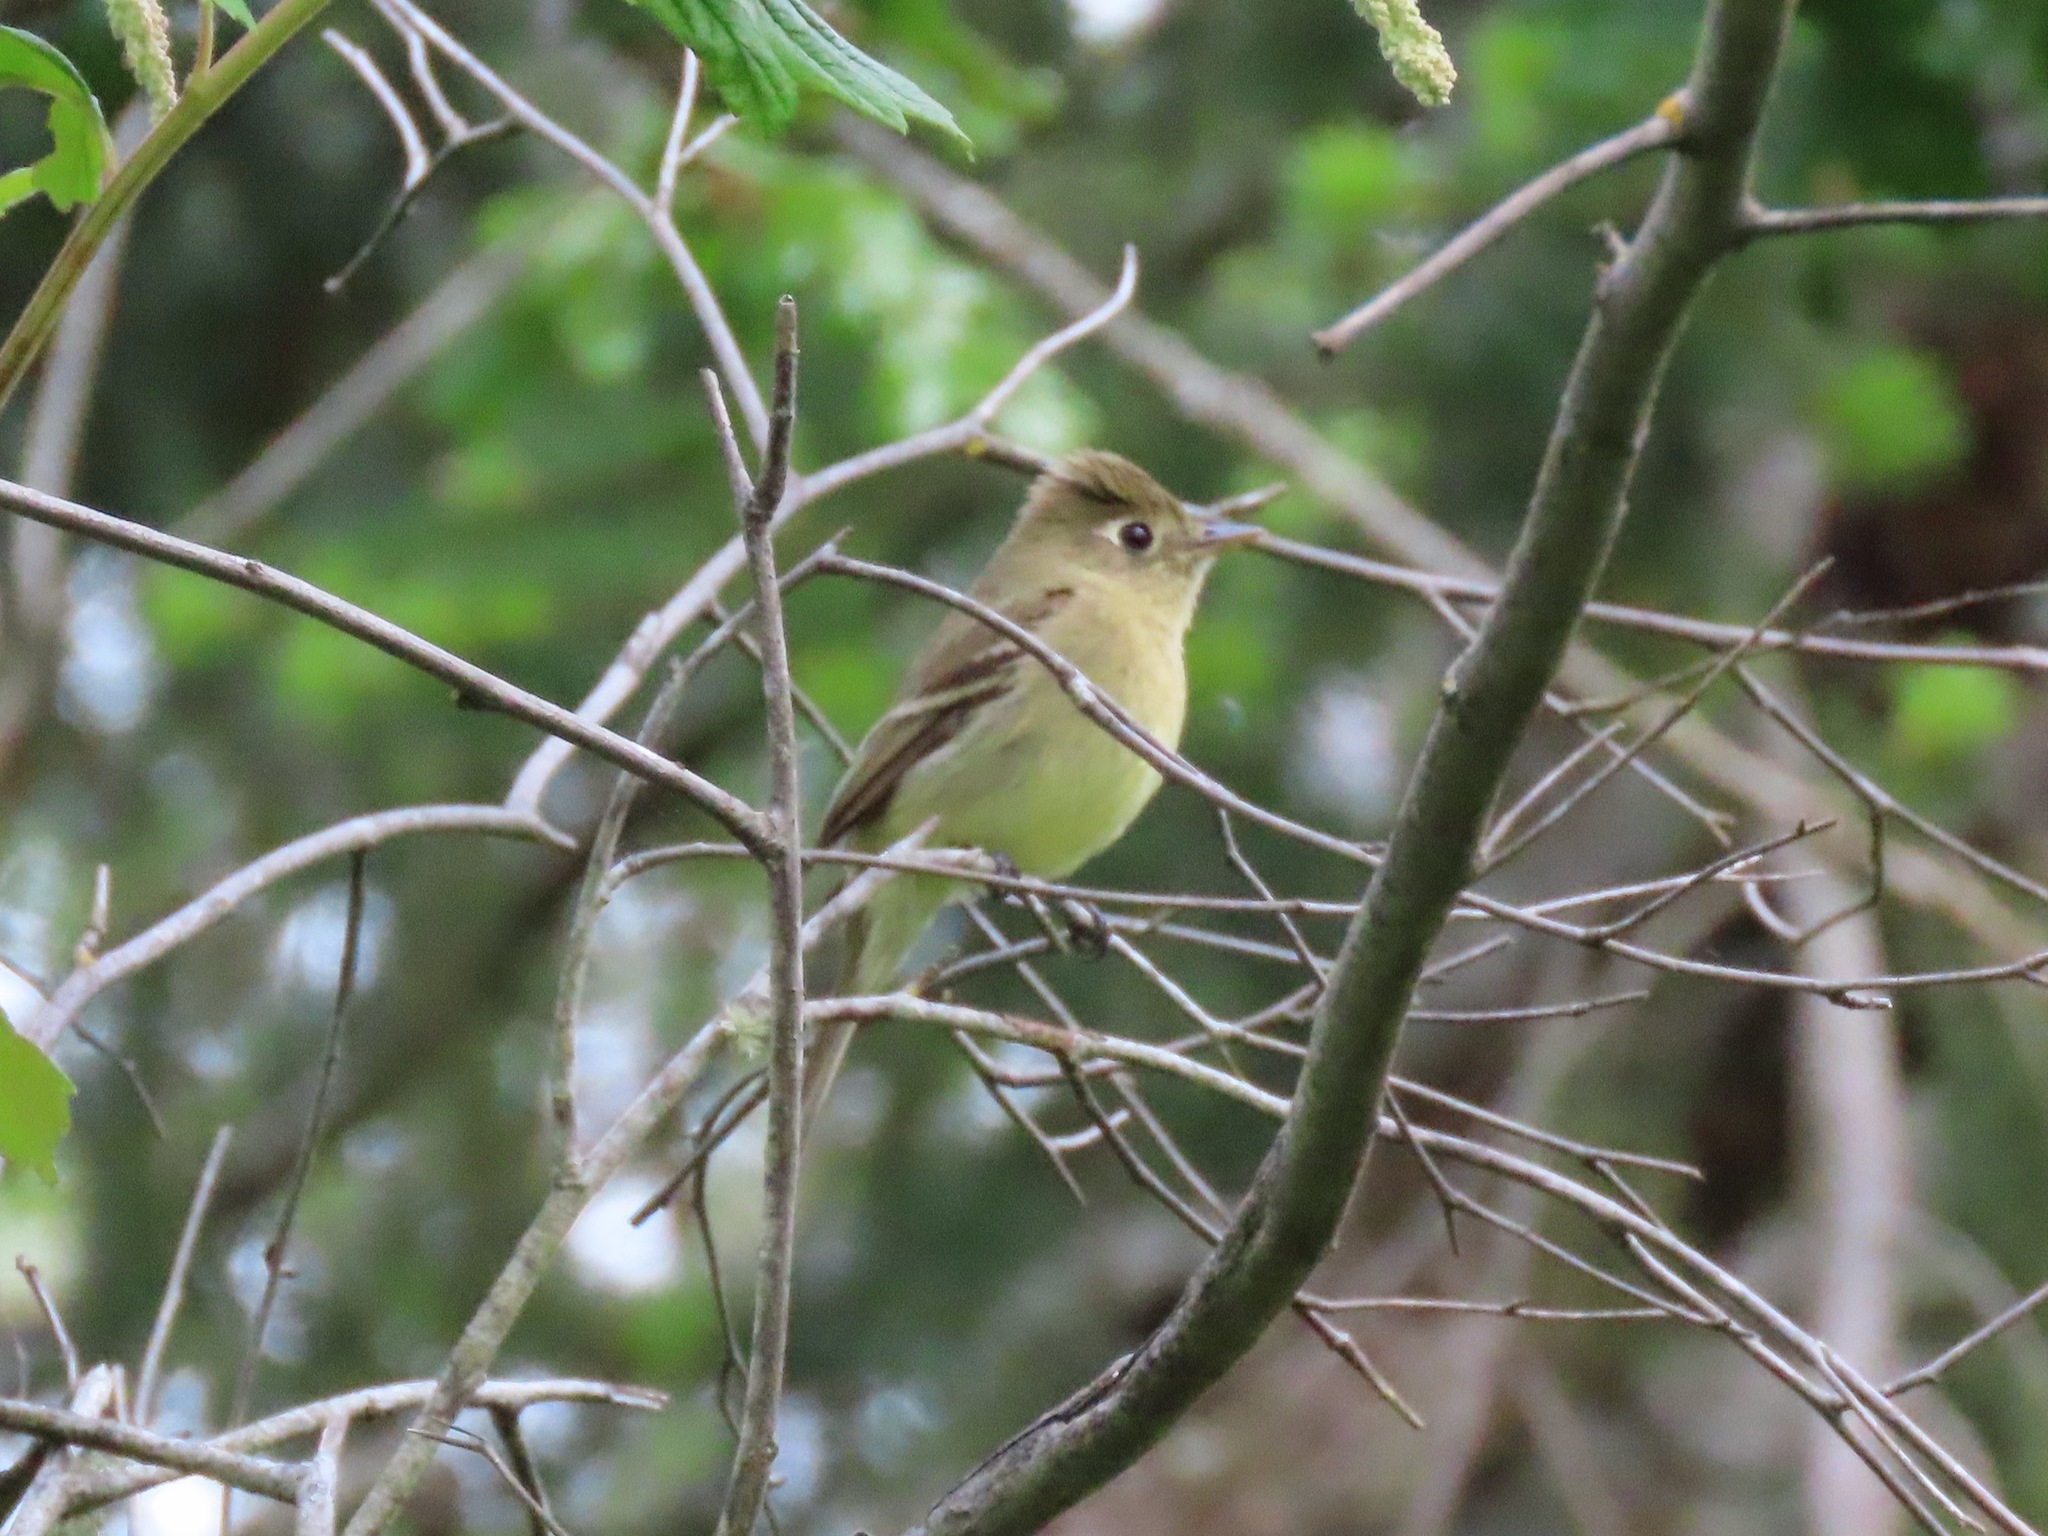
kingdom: Animalia
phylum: Chordata
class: Aves
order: Passeriformes
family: Tyrannidae
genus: Empidonax
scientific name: Empidonax difficilis
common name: Pacific-slope flycatcher
